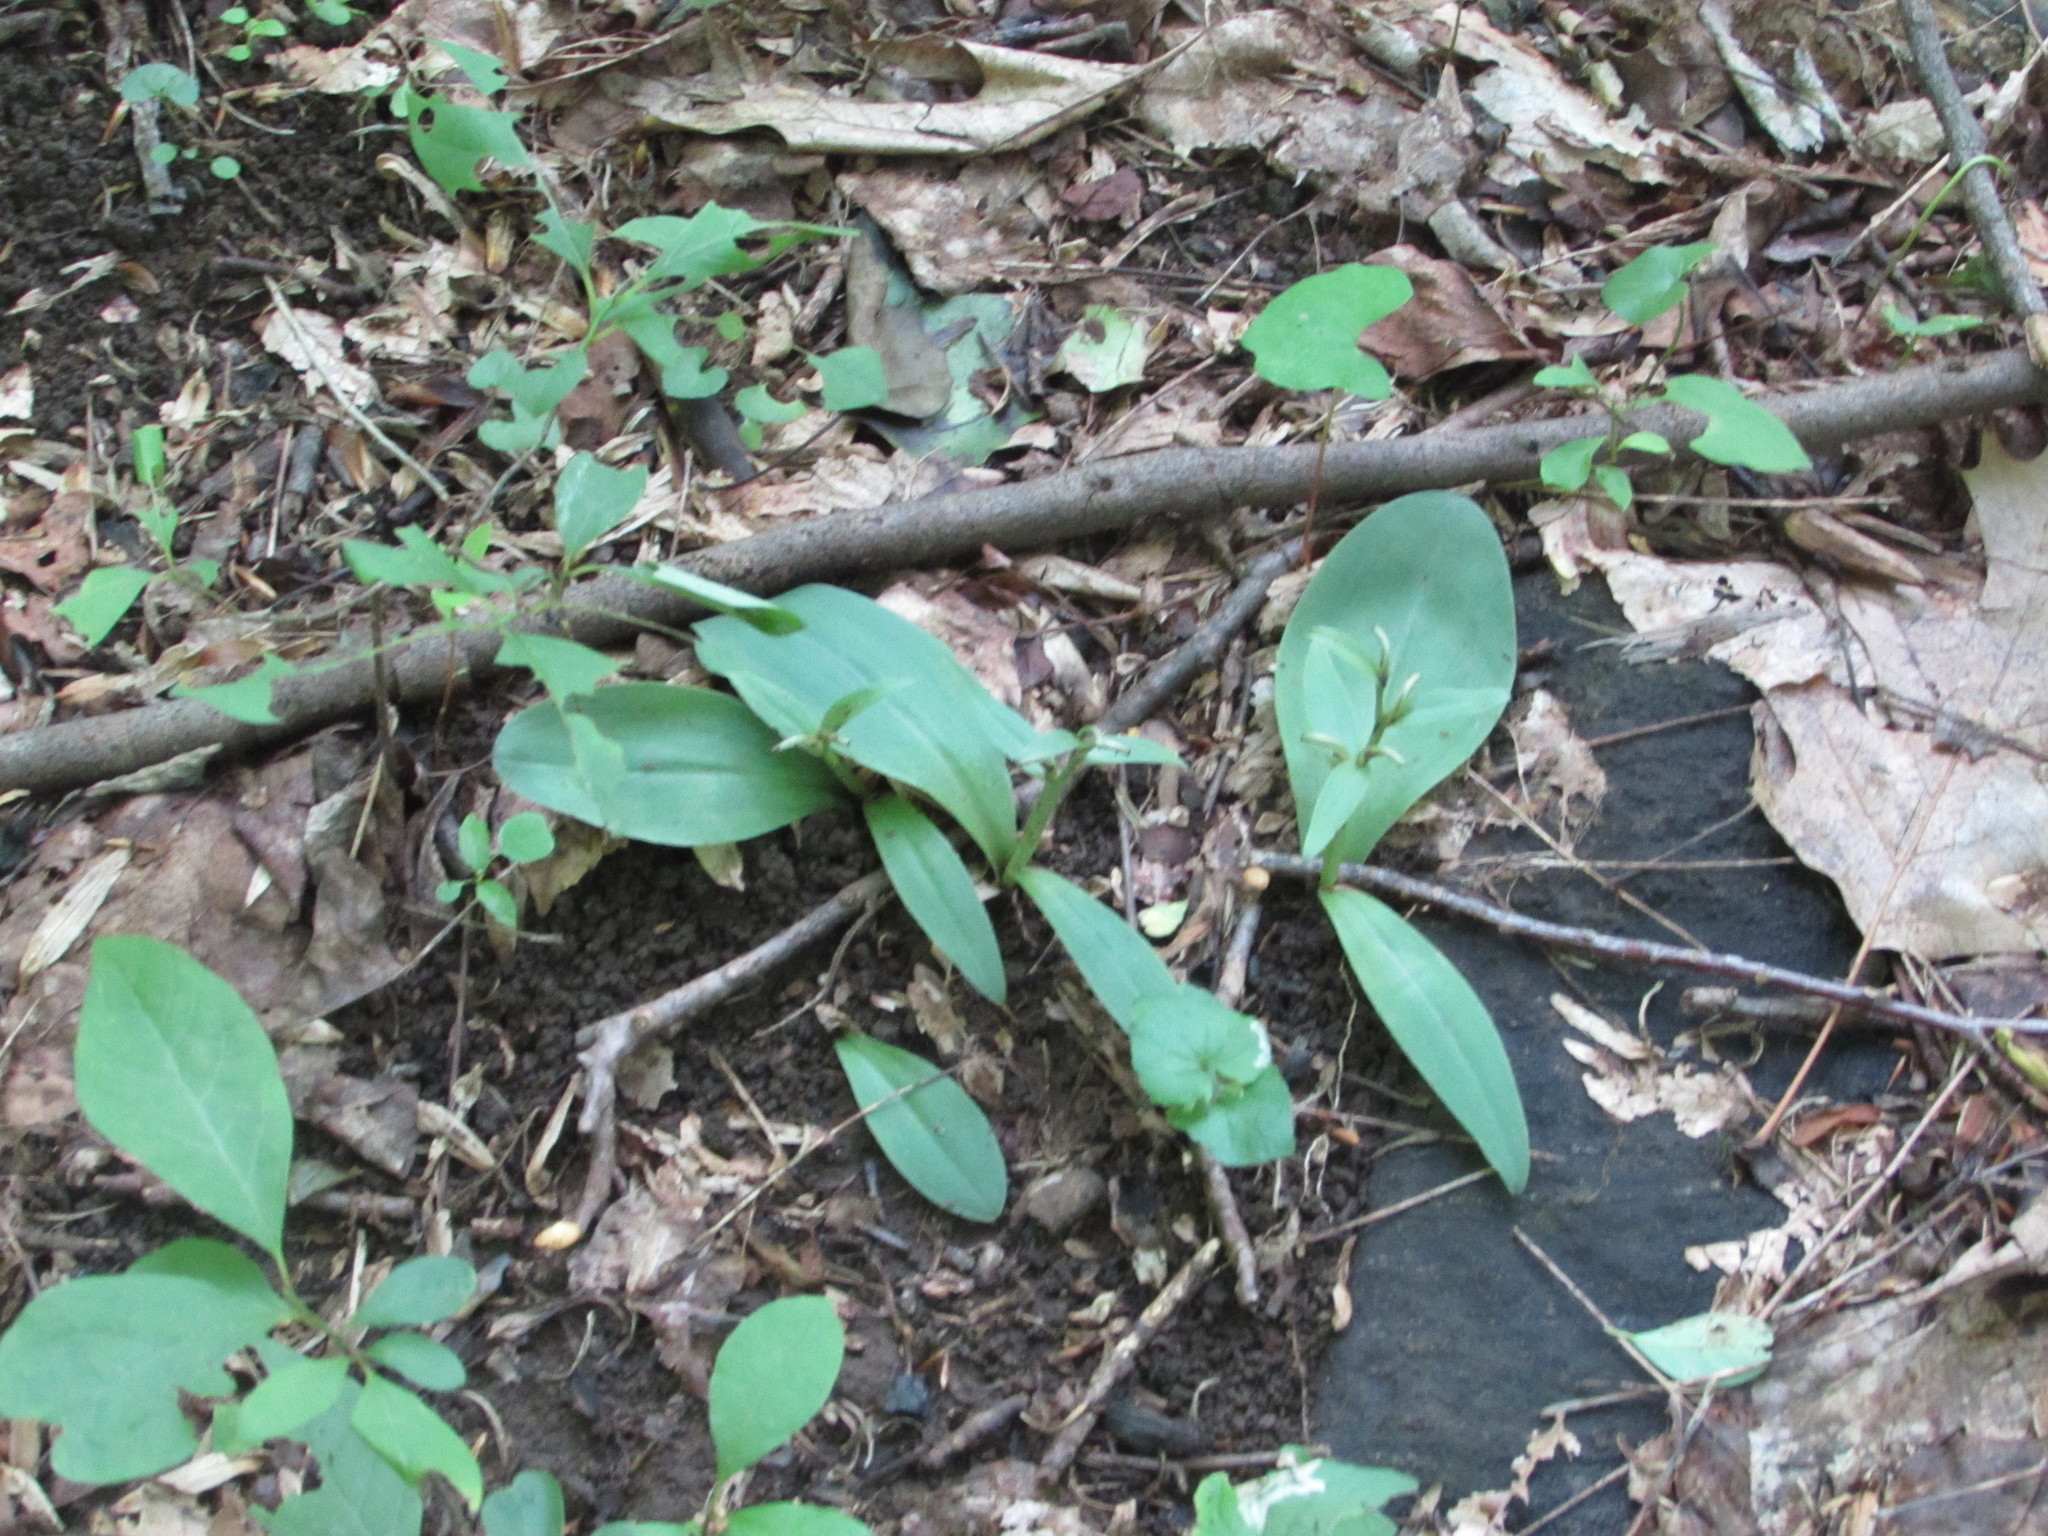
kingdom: Plantae
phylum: Tracheophyta
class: Liliopsida
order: Asparagales
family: Orchidaceae
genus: Galearis
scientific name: Galearis spectabilis
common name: Purple-hooded orchis
